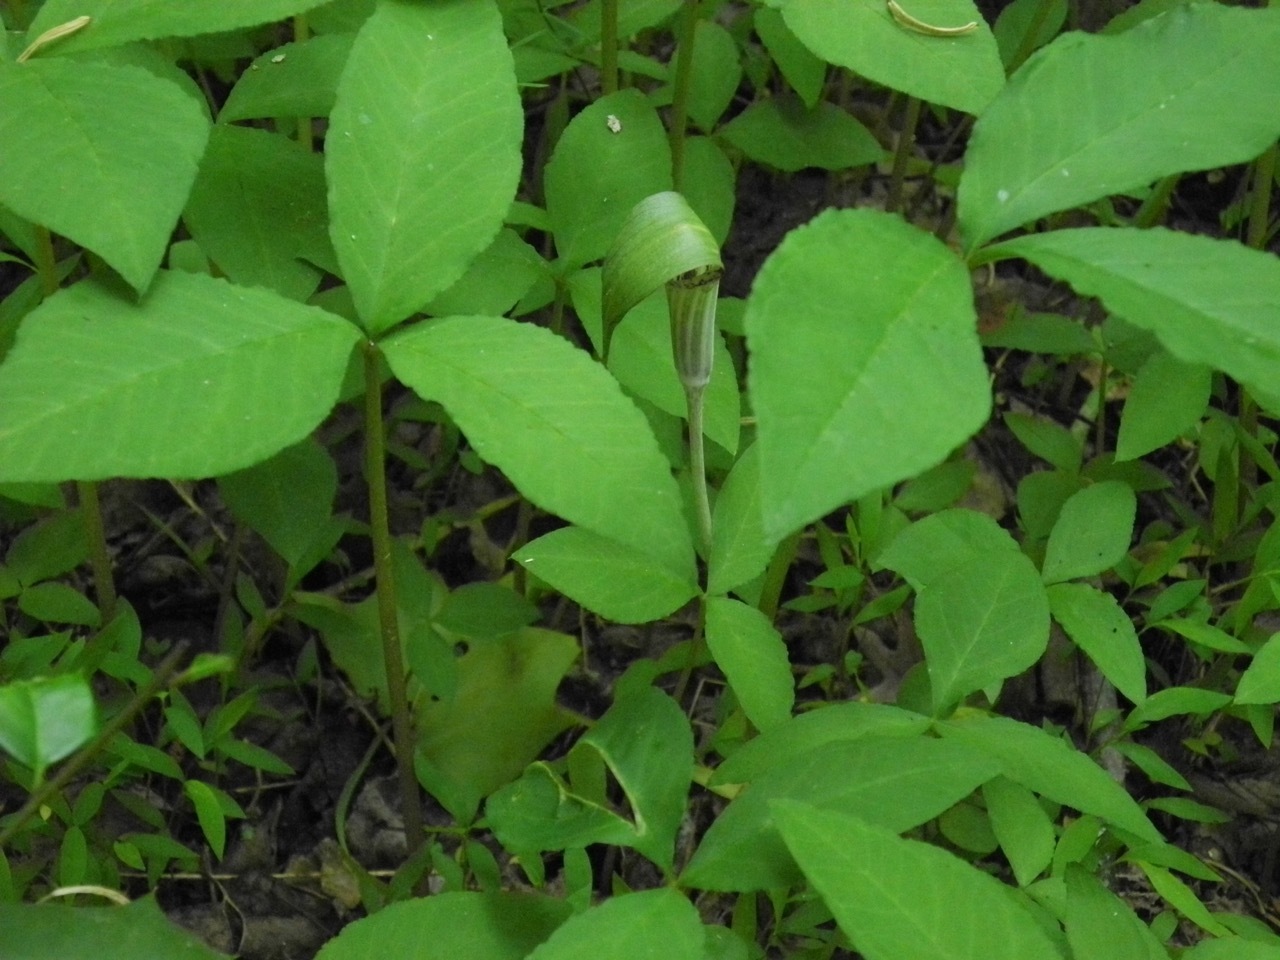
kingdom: Plantae
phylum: Tracheophyta
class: Liliopsida
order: Alismatales
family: Araceae
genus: Arisaema
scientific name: Arisaema triphyllum
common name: Jack-in-the-pulpit
